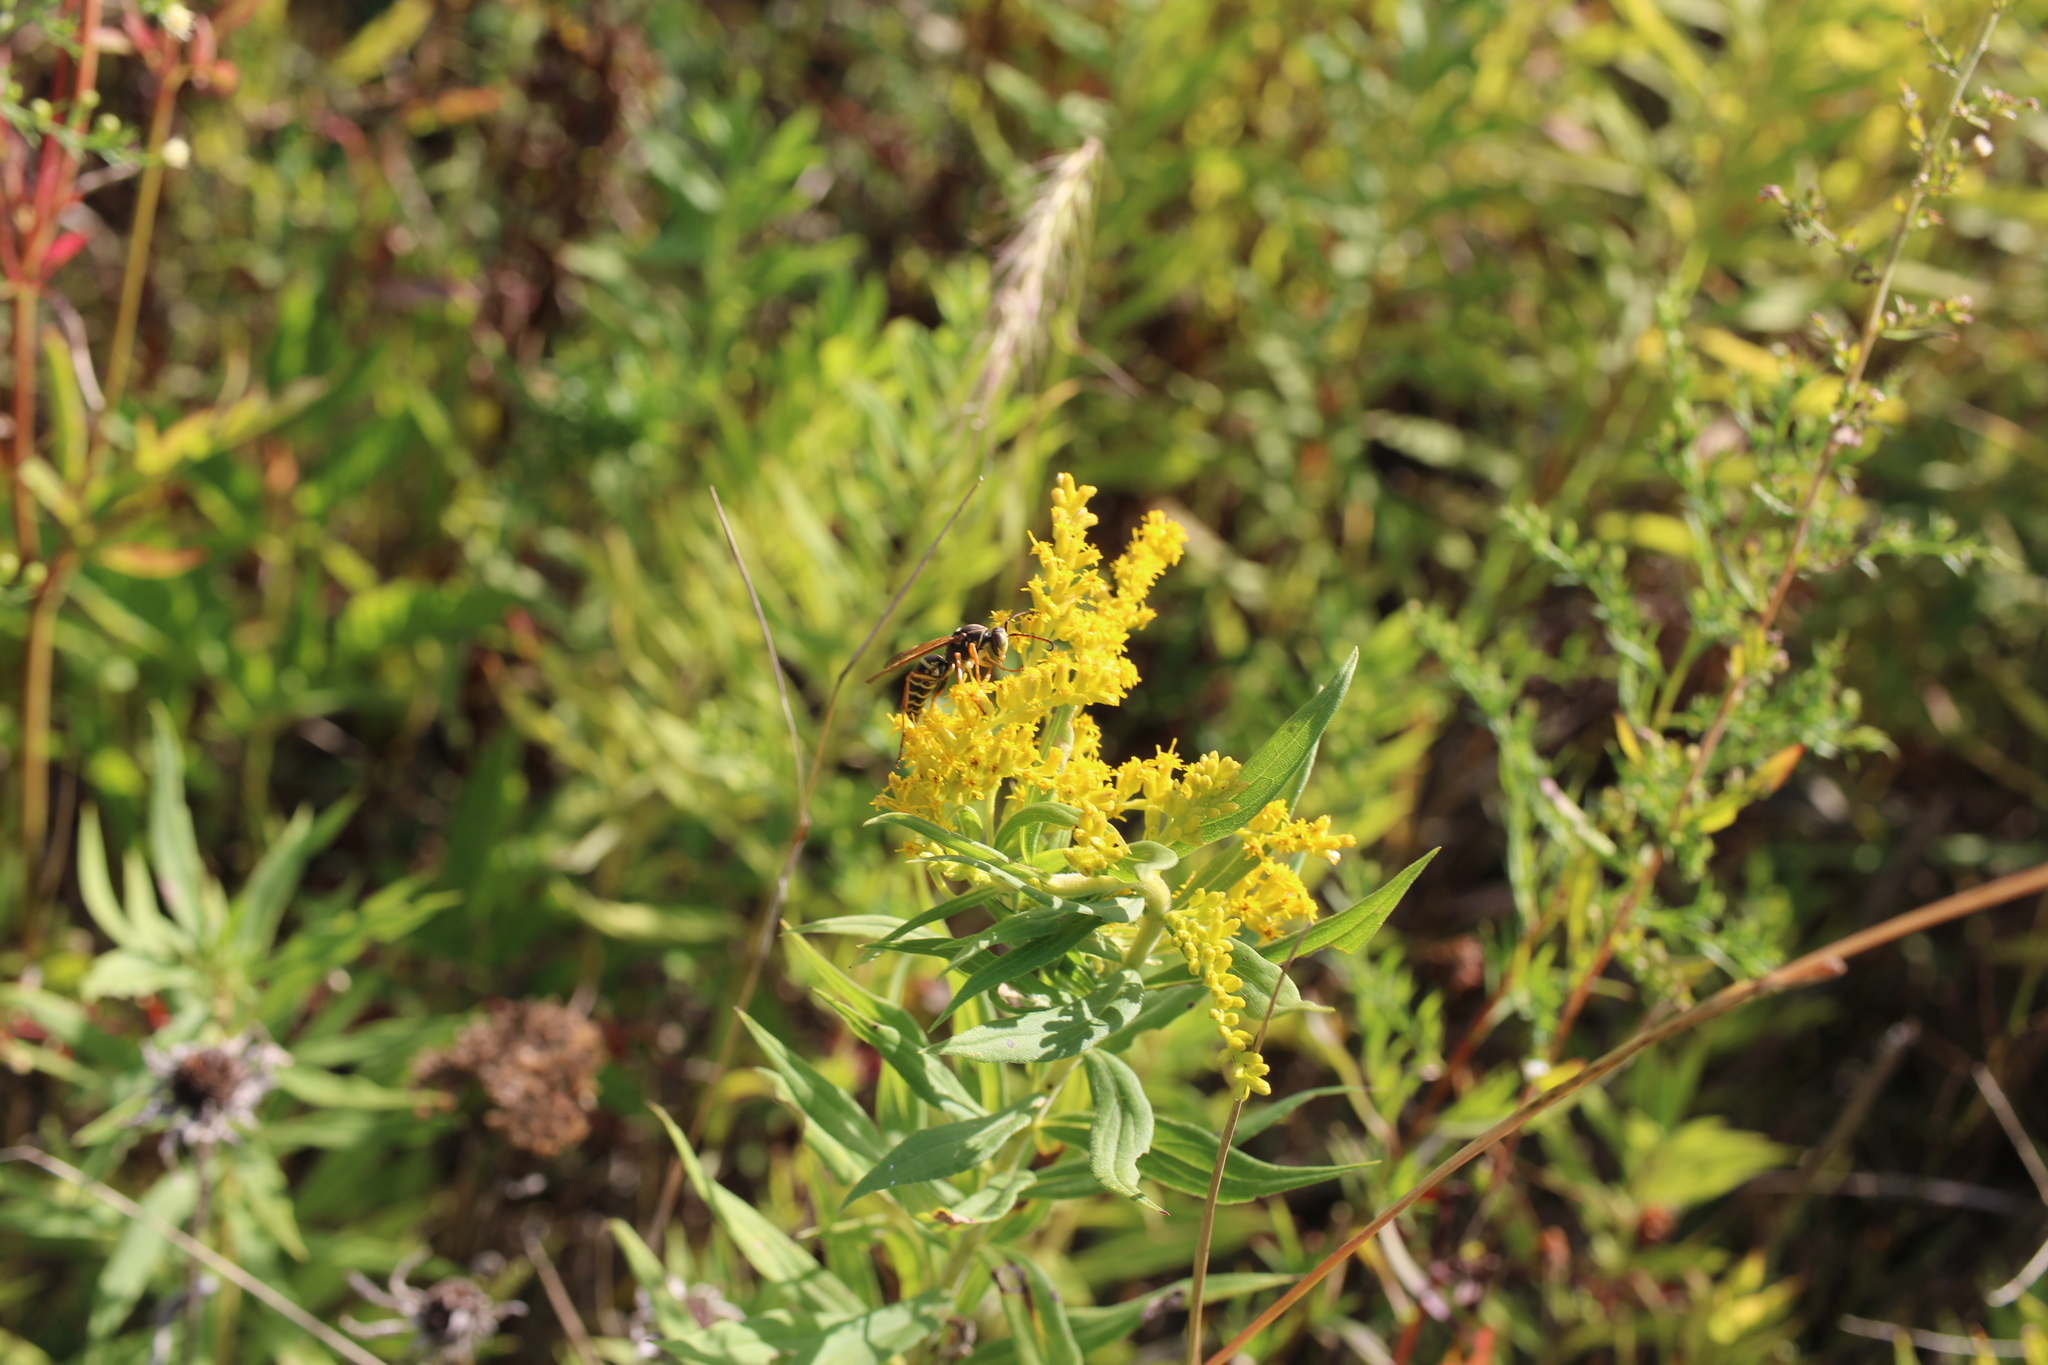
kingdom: Animalia
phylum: Arthropoda
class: Insecta
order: Hymenoptera
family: Eumenidae
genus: Polistes
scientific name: Polistes fuscatus
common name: Dark paper wasp
